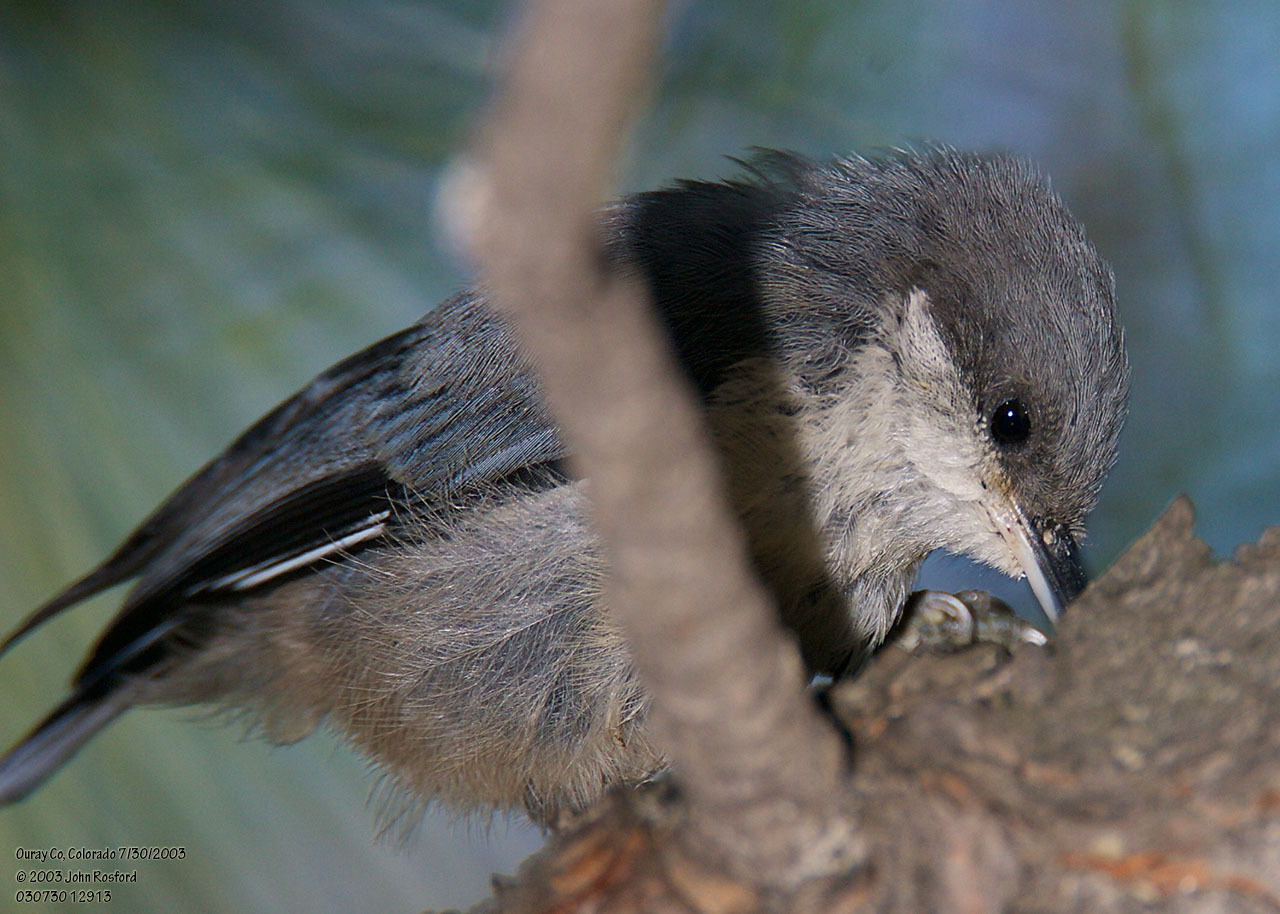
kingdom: Animalia
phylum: Chordata
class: Aves
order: Passeriformes
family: Sittidae
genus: Sitta
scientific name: Sitta pygmaea
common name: Pygmy nuthatch
